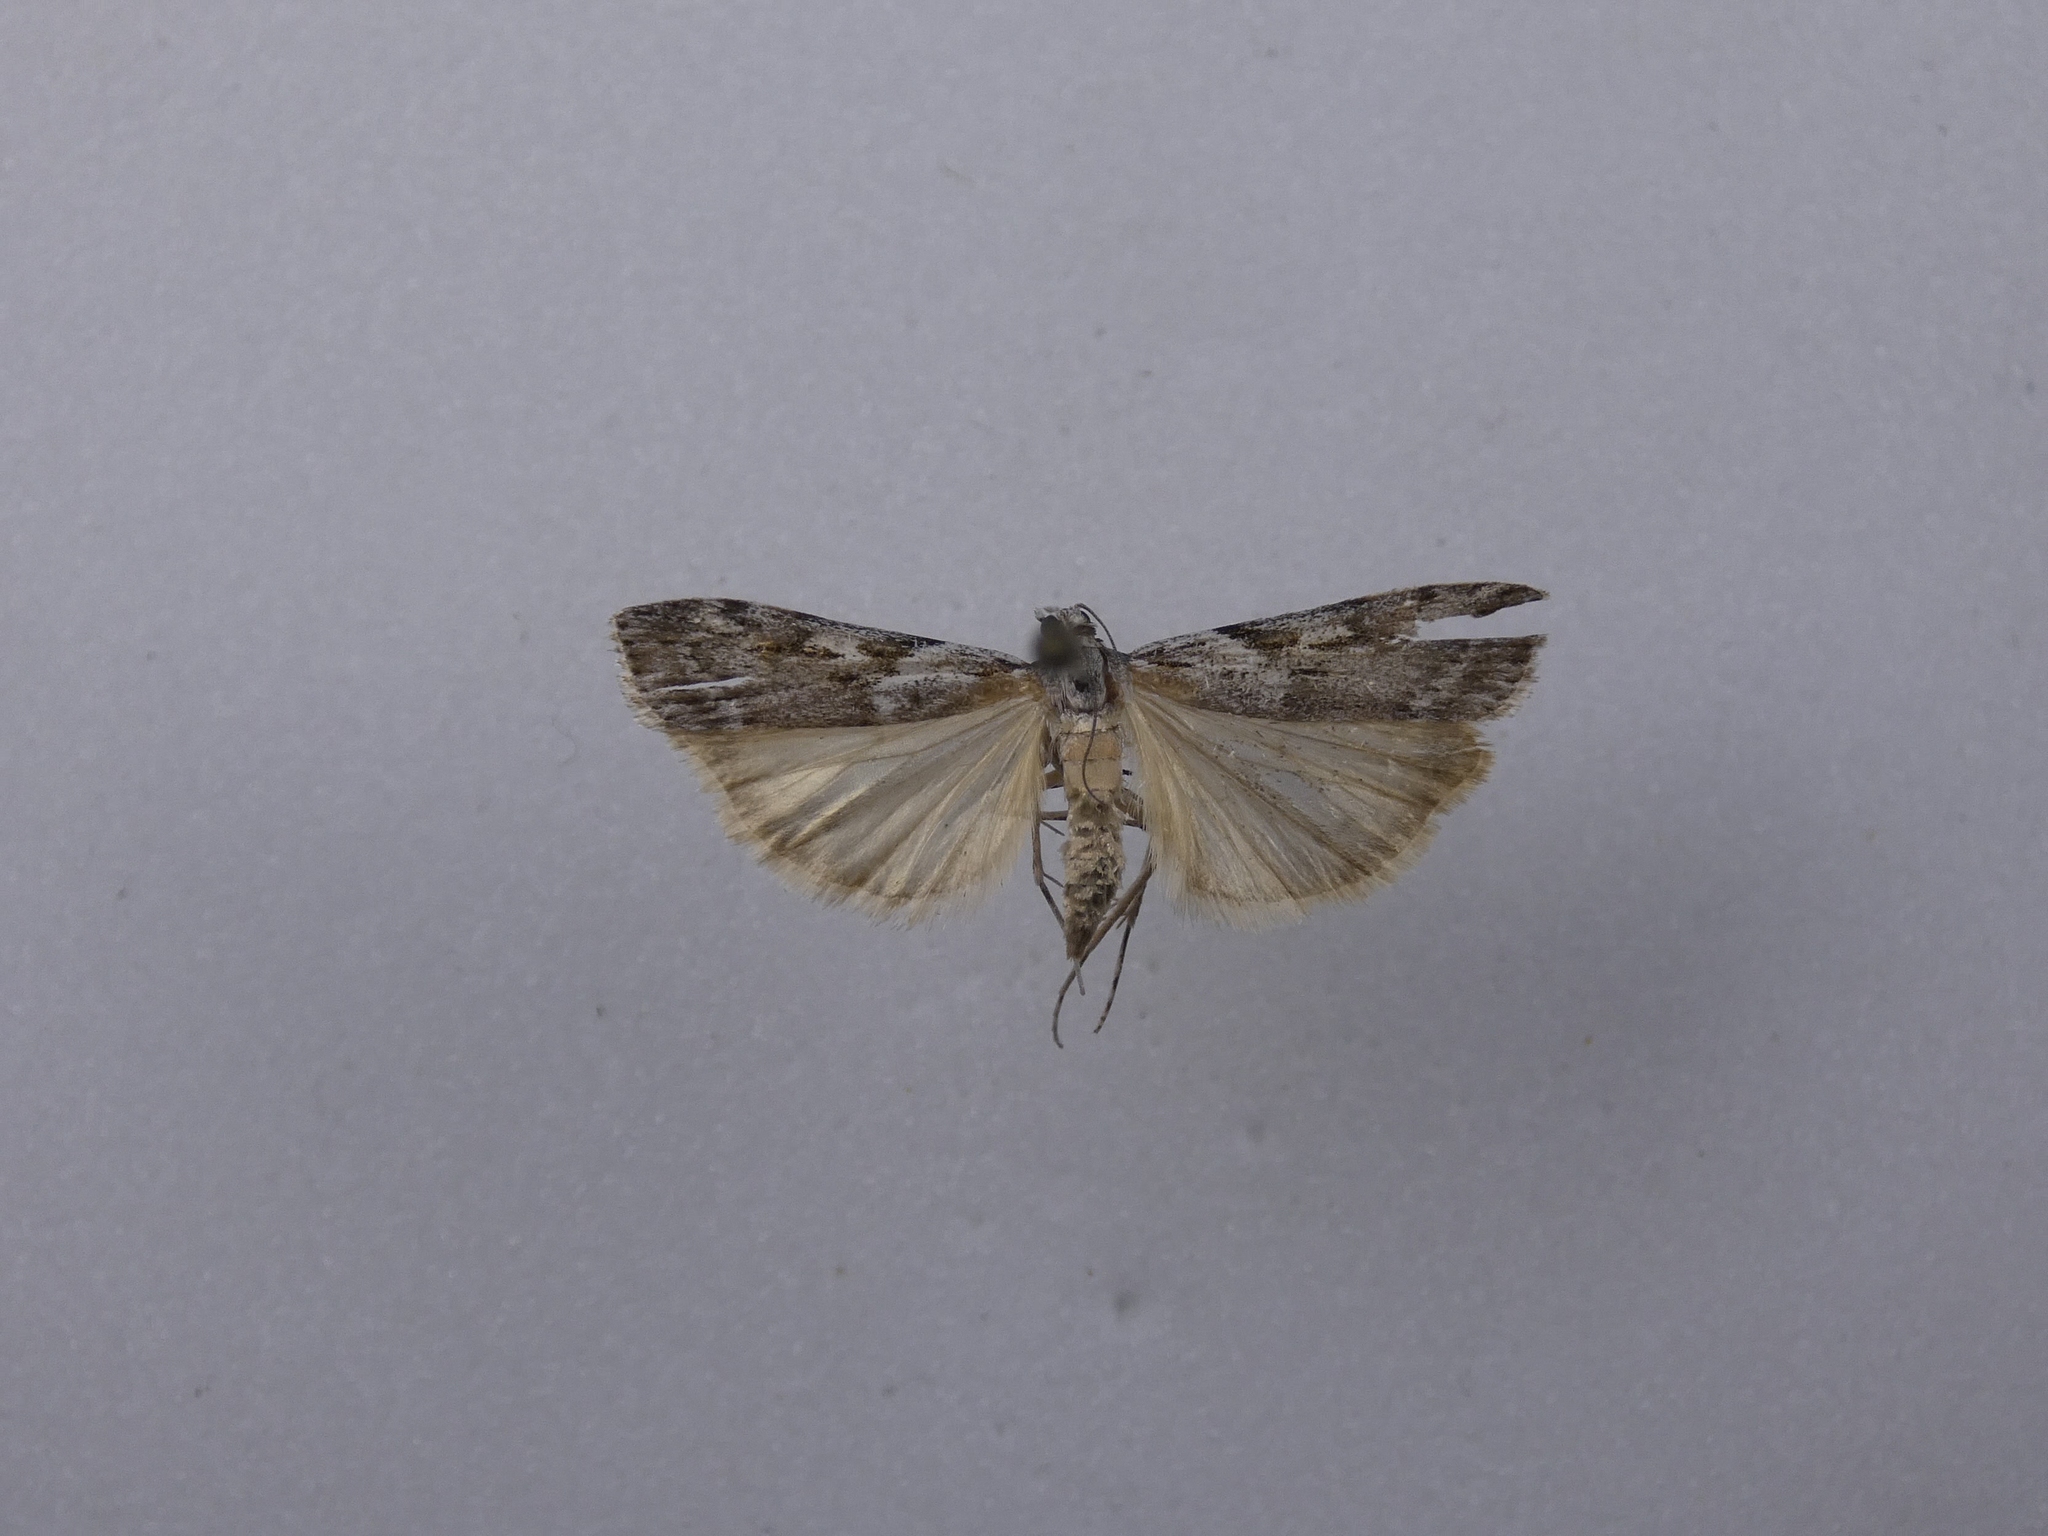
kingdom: Animalia
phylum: Arthropoda
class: Insecta
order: Lepidoptera
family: Crambidae
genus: Scoparia
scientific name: Scoparia halopis
